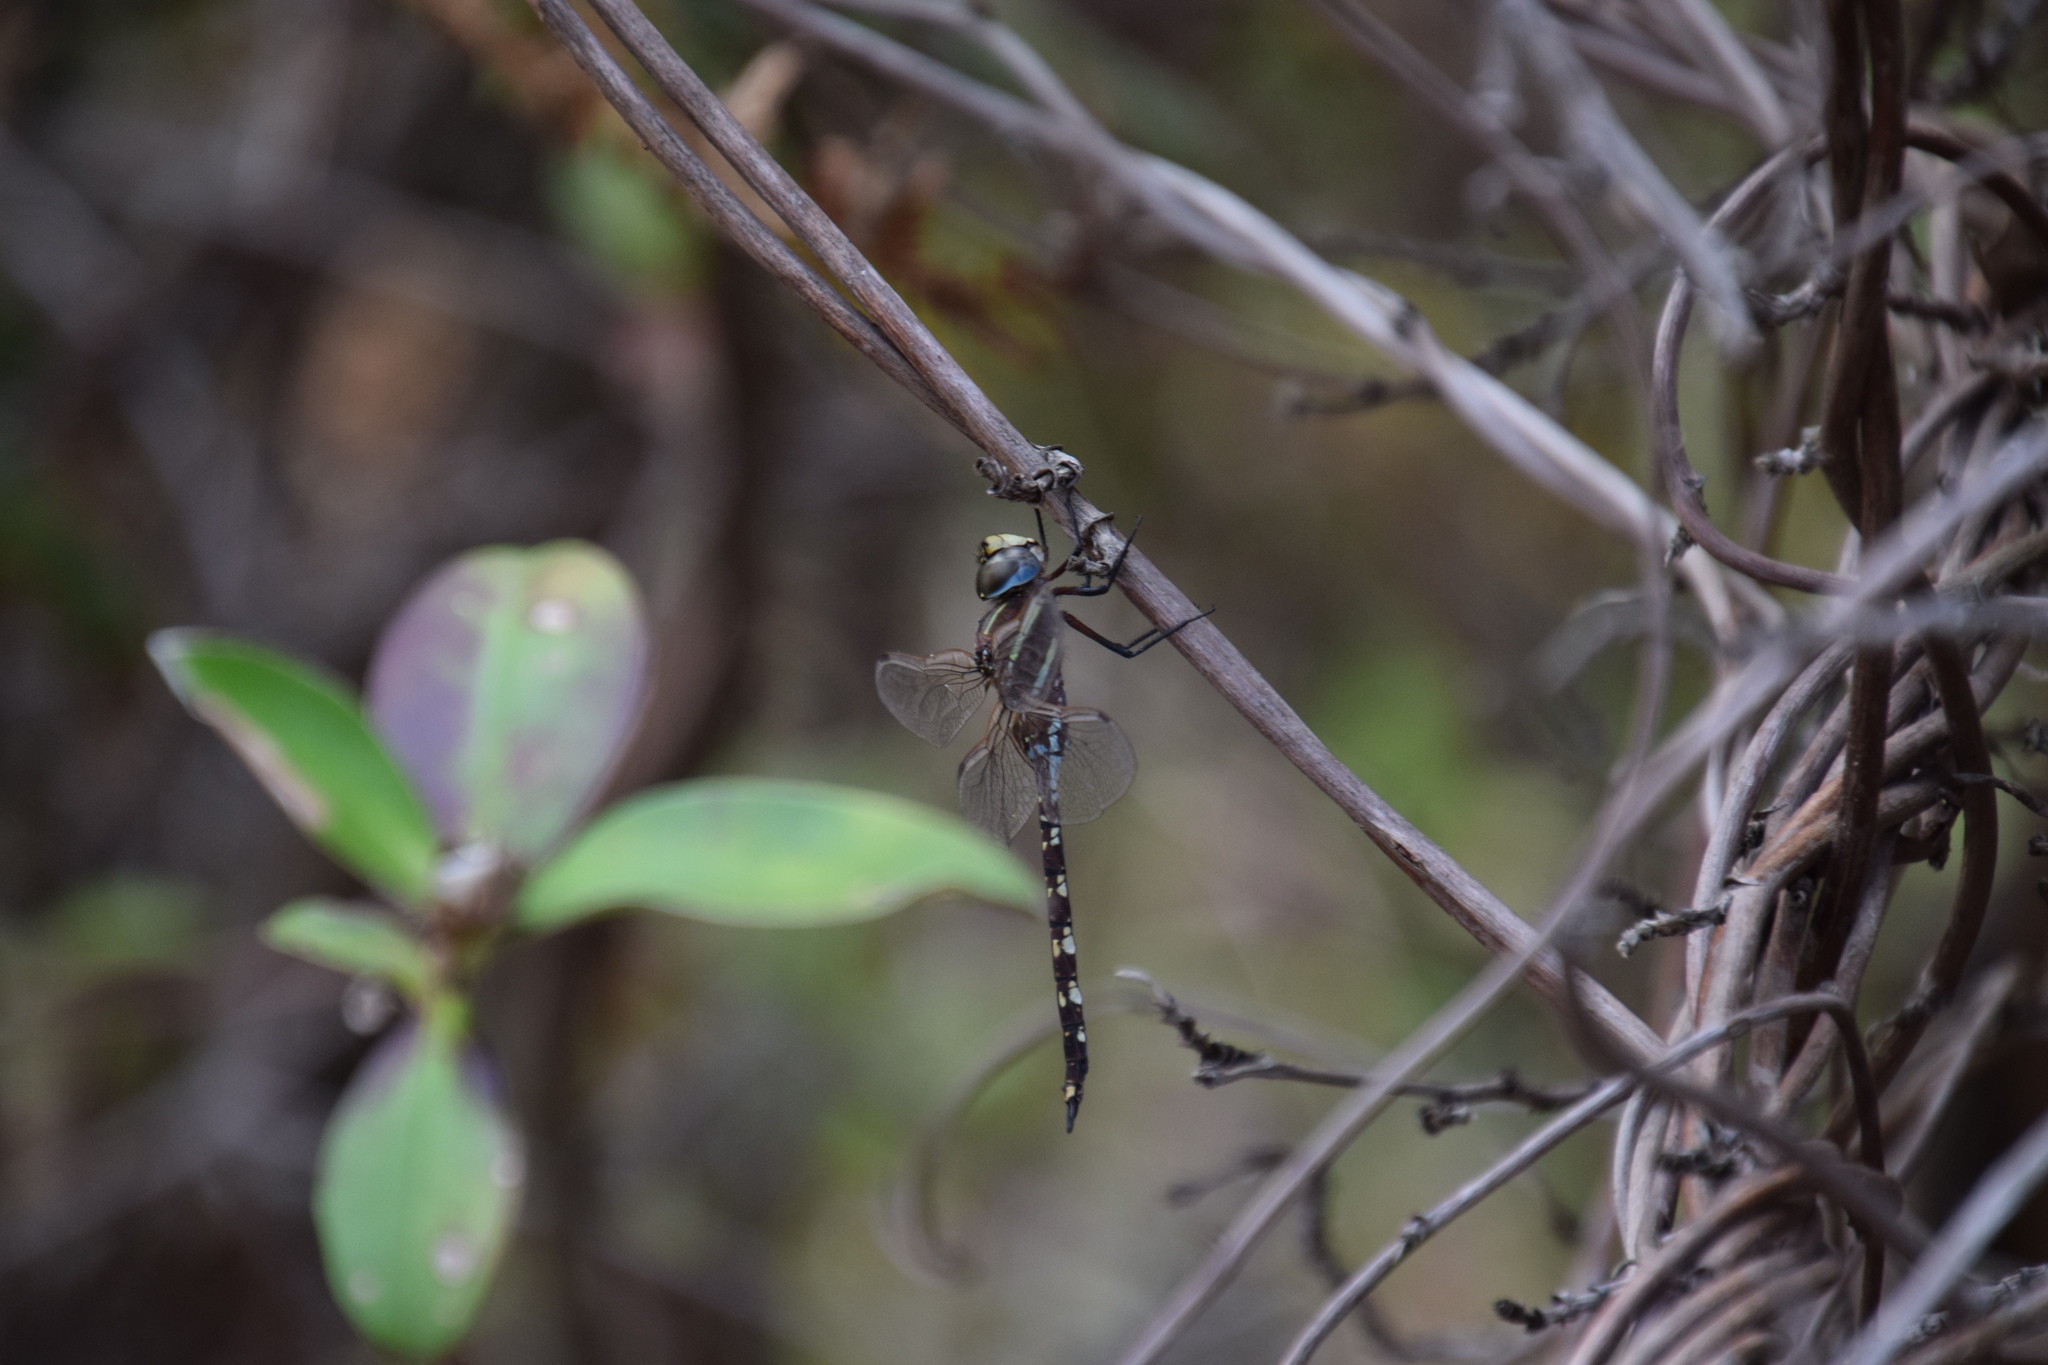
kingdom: Animalia
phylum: Arthropoda
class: Insecta
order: Odonata
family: Aeshnidae
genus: Aeshna
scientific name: Aeshna brevistyla
